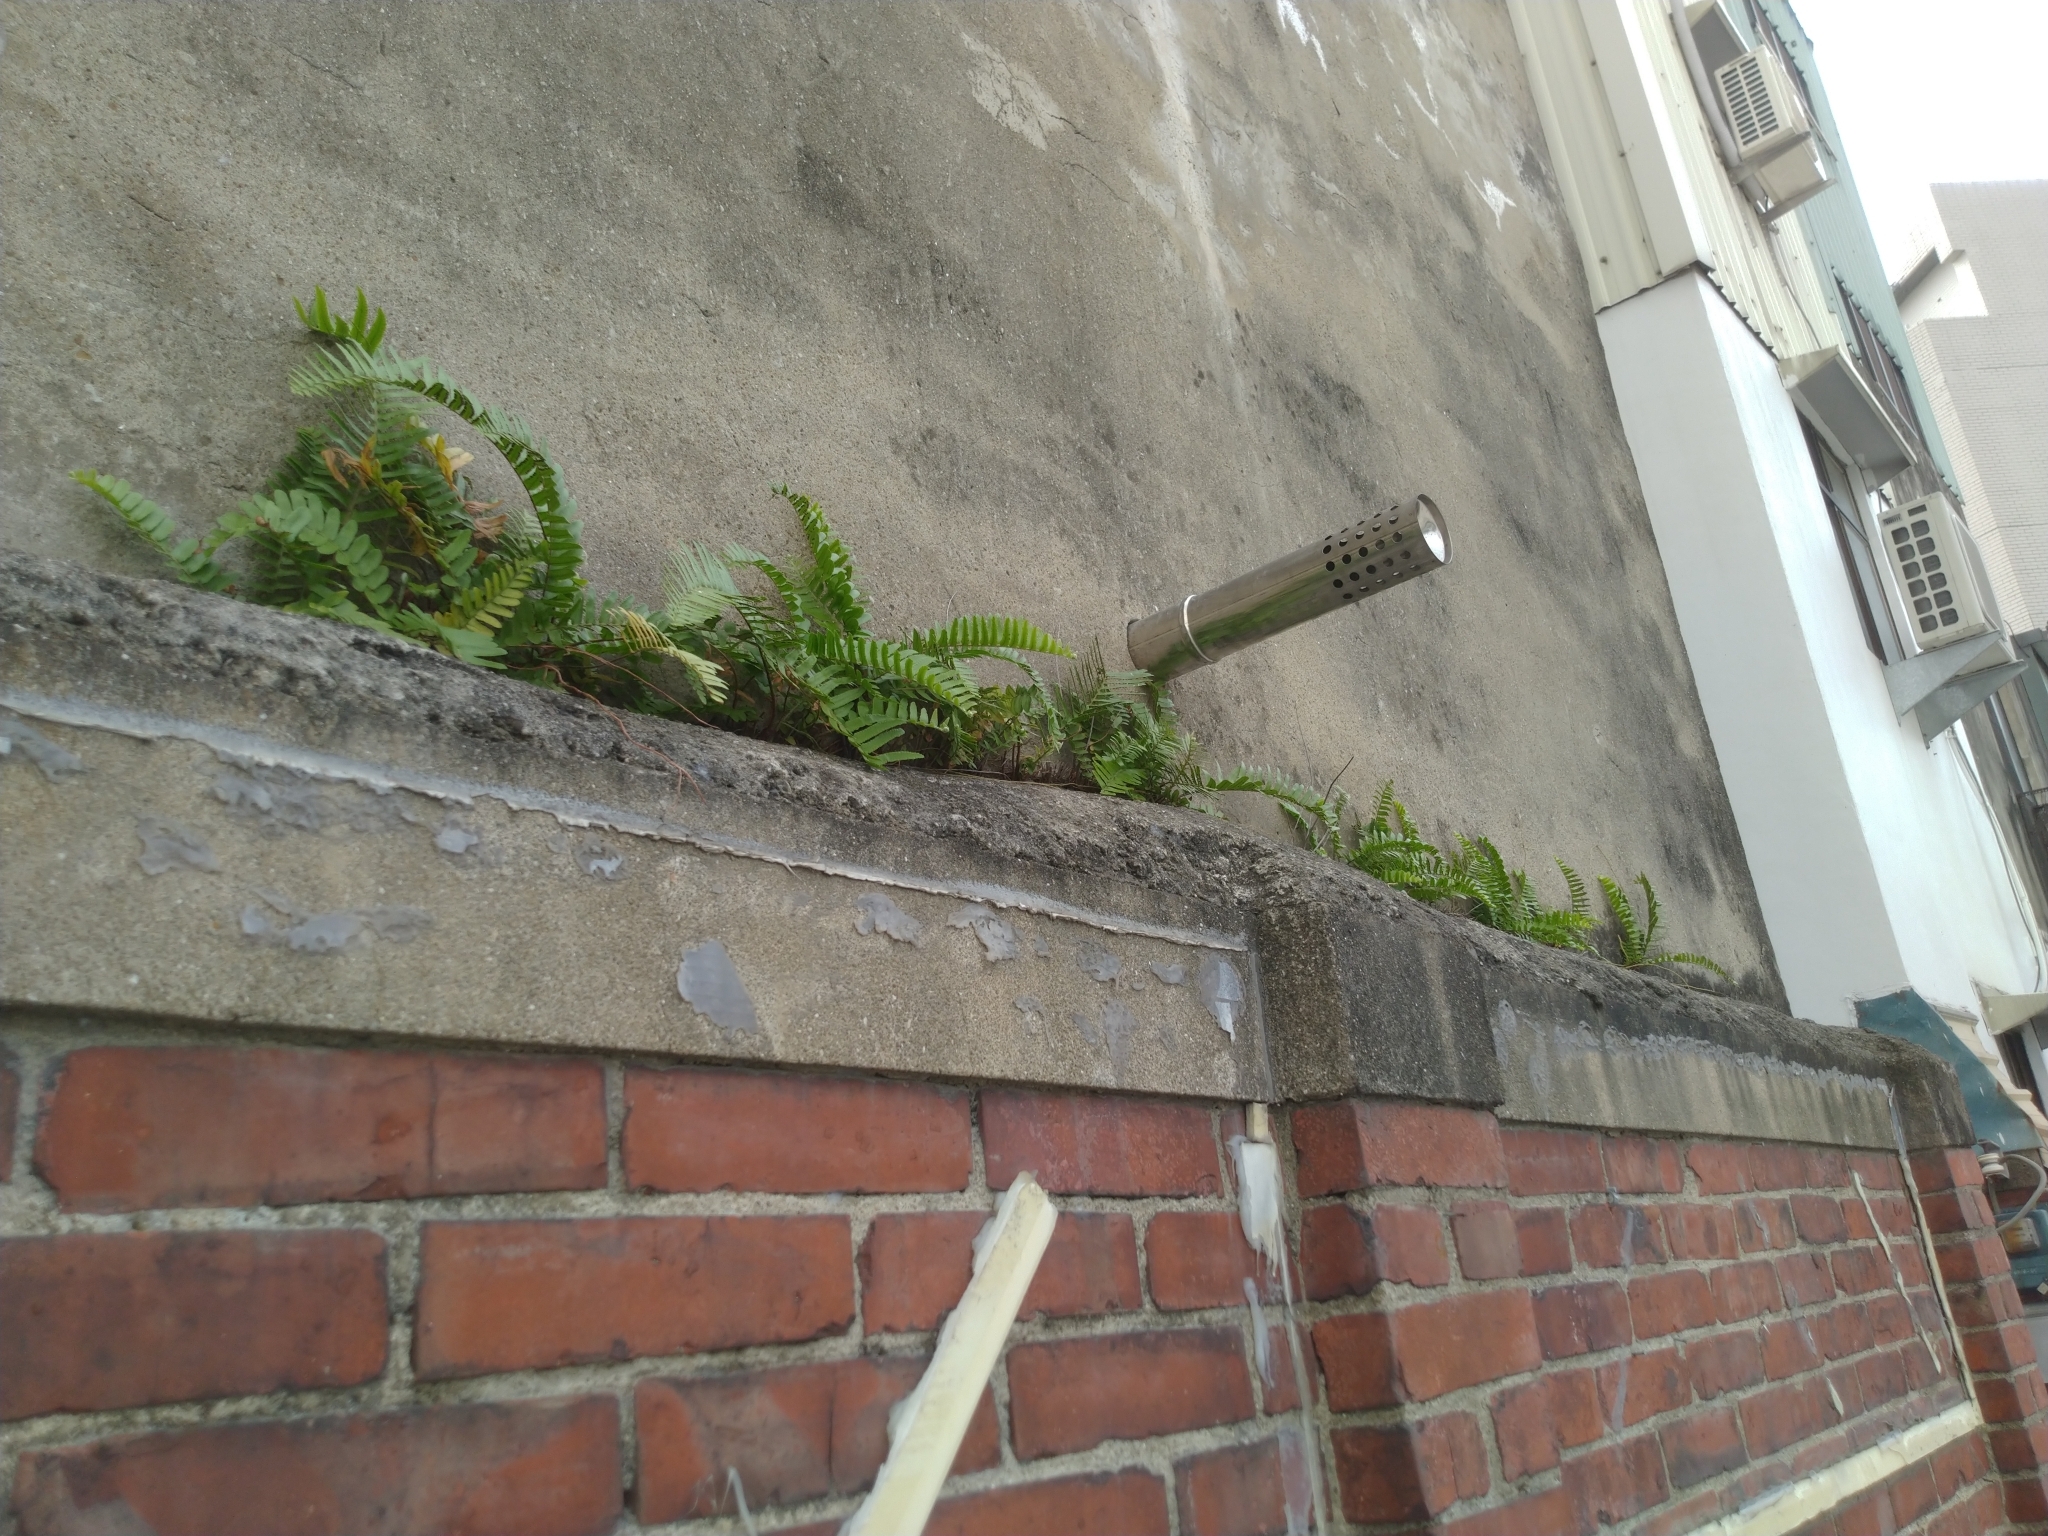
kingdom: Plantae
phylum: Tracheophyta
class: Polypodiopsida
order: Polypodiales
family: Nephrolepidaceae
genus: Nephrolepis
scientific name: Nephrolepis brownii
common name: Asian swordfern
